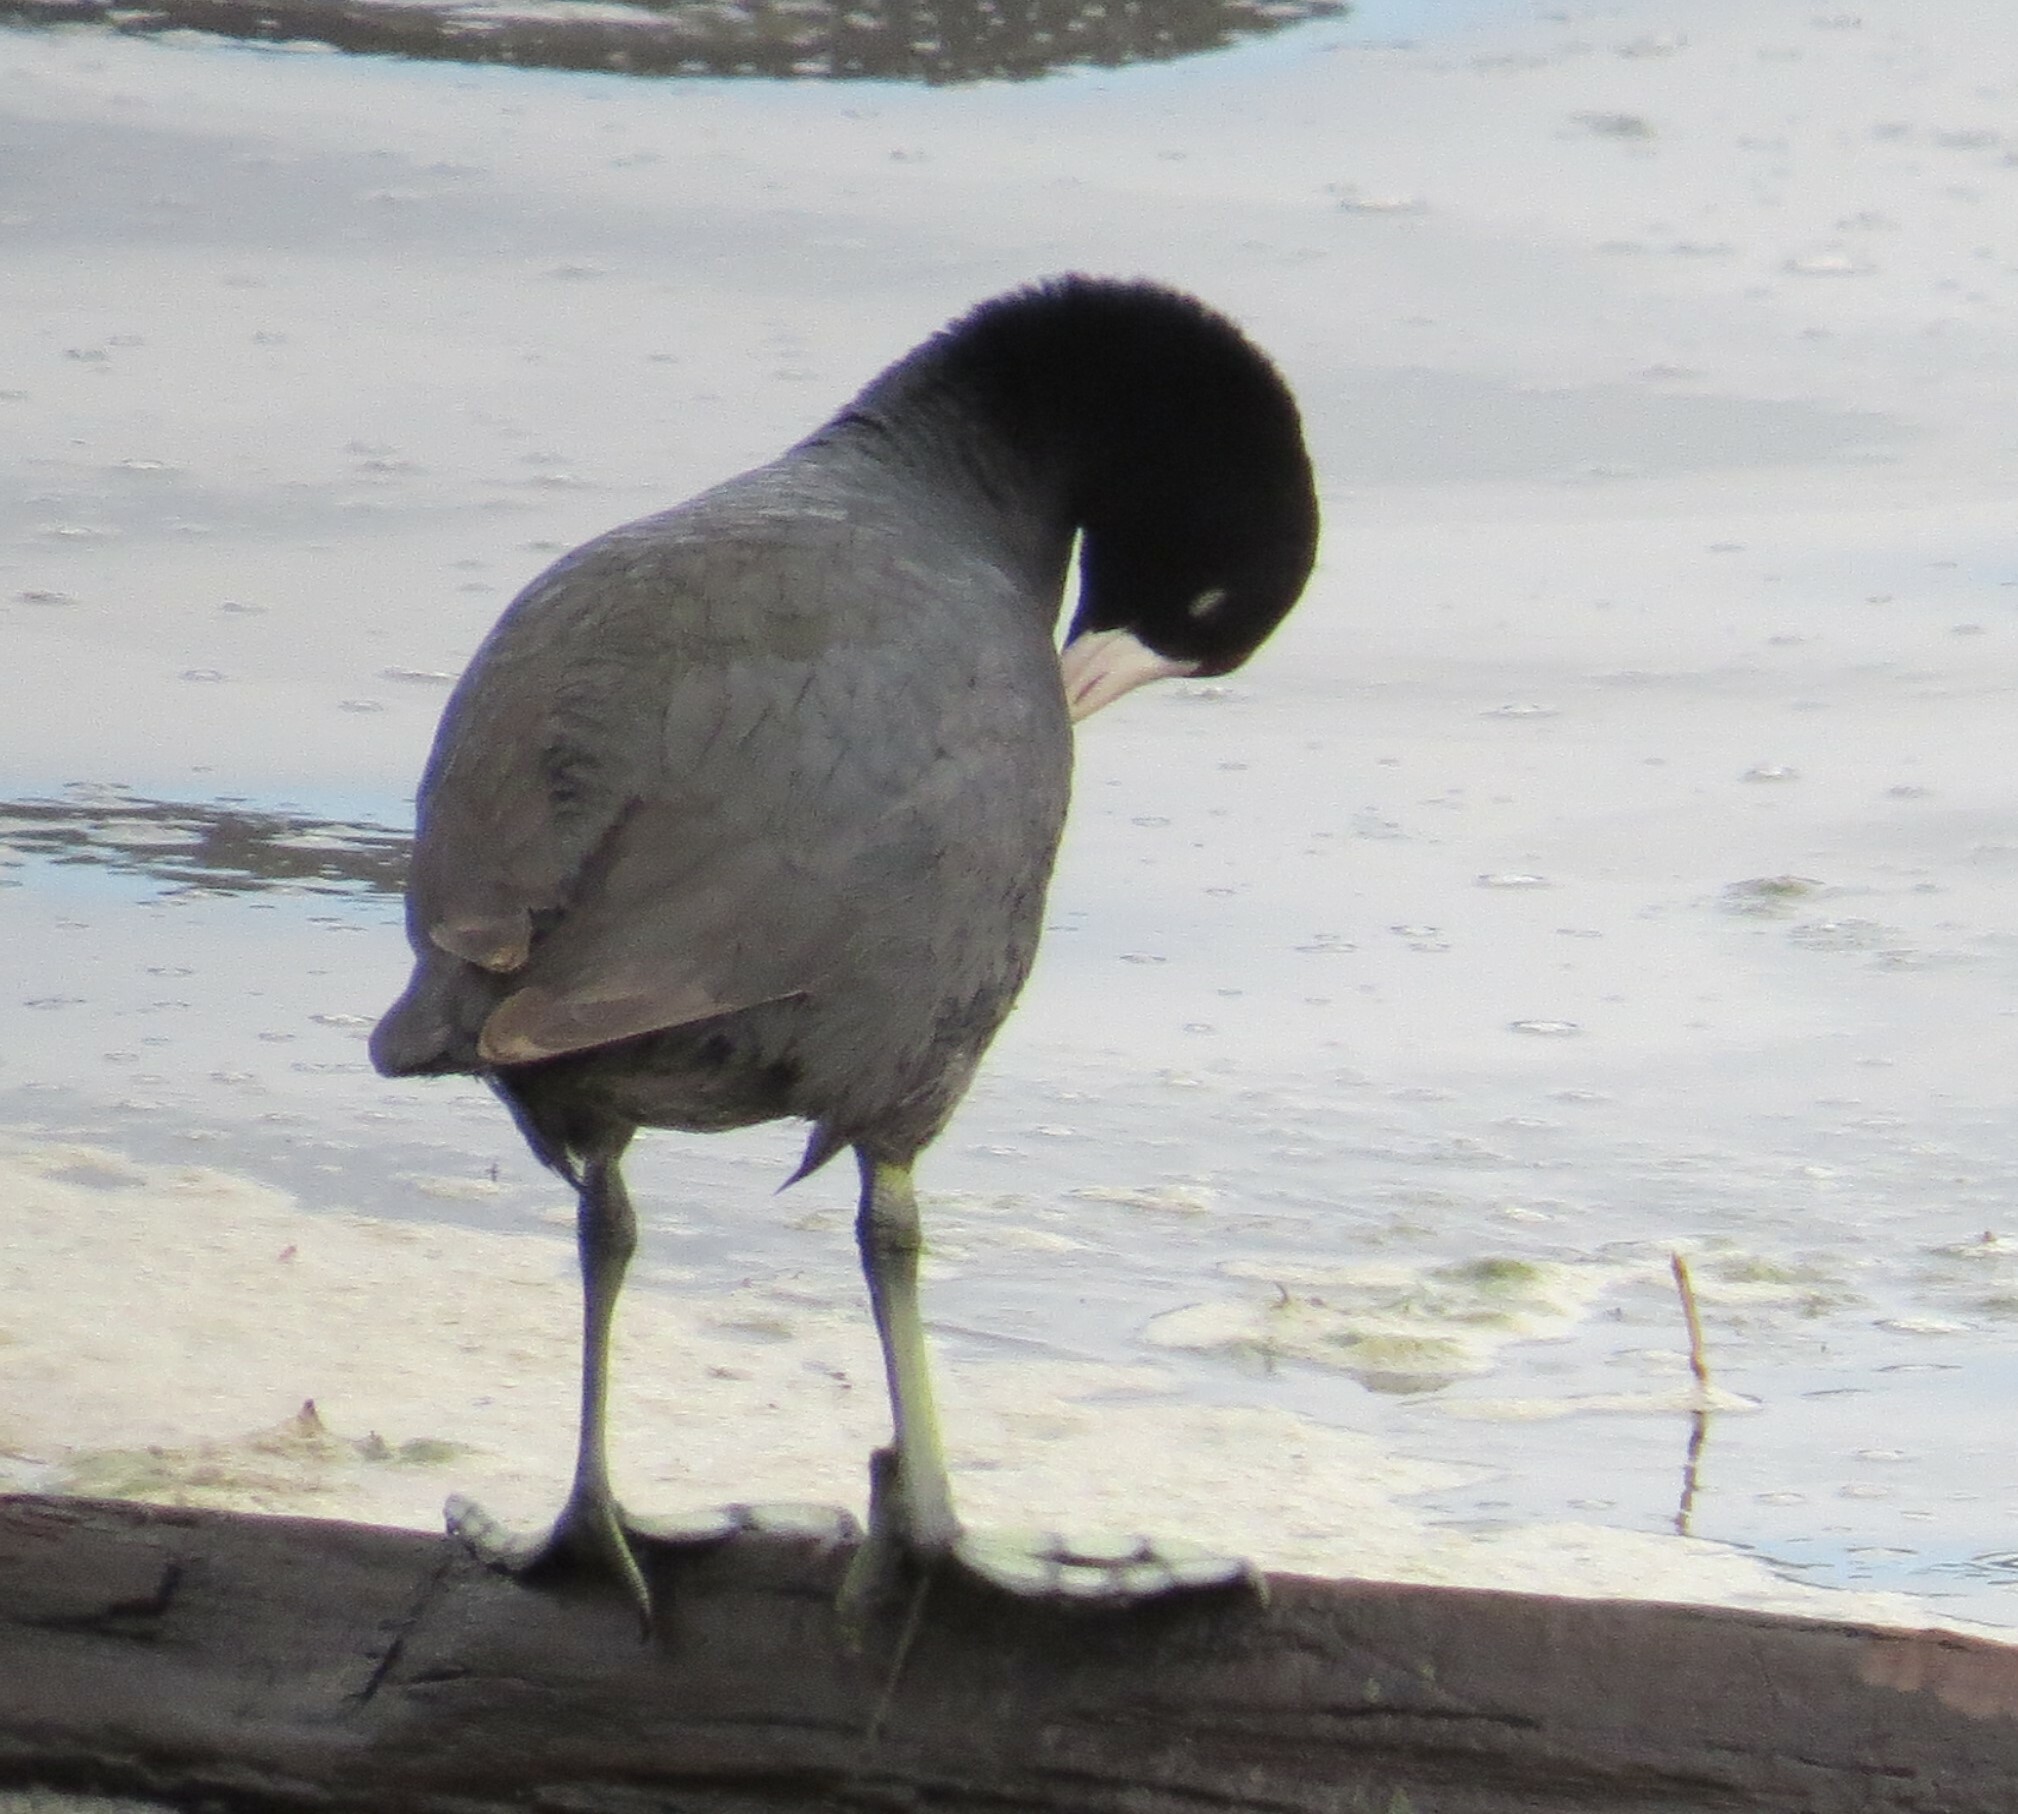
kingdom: Animalia
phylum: Chordata
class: Aves
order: Gruiformes
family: Rallidae
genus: Fulica
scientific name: Fulica americana
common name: American coot
